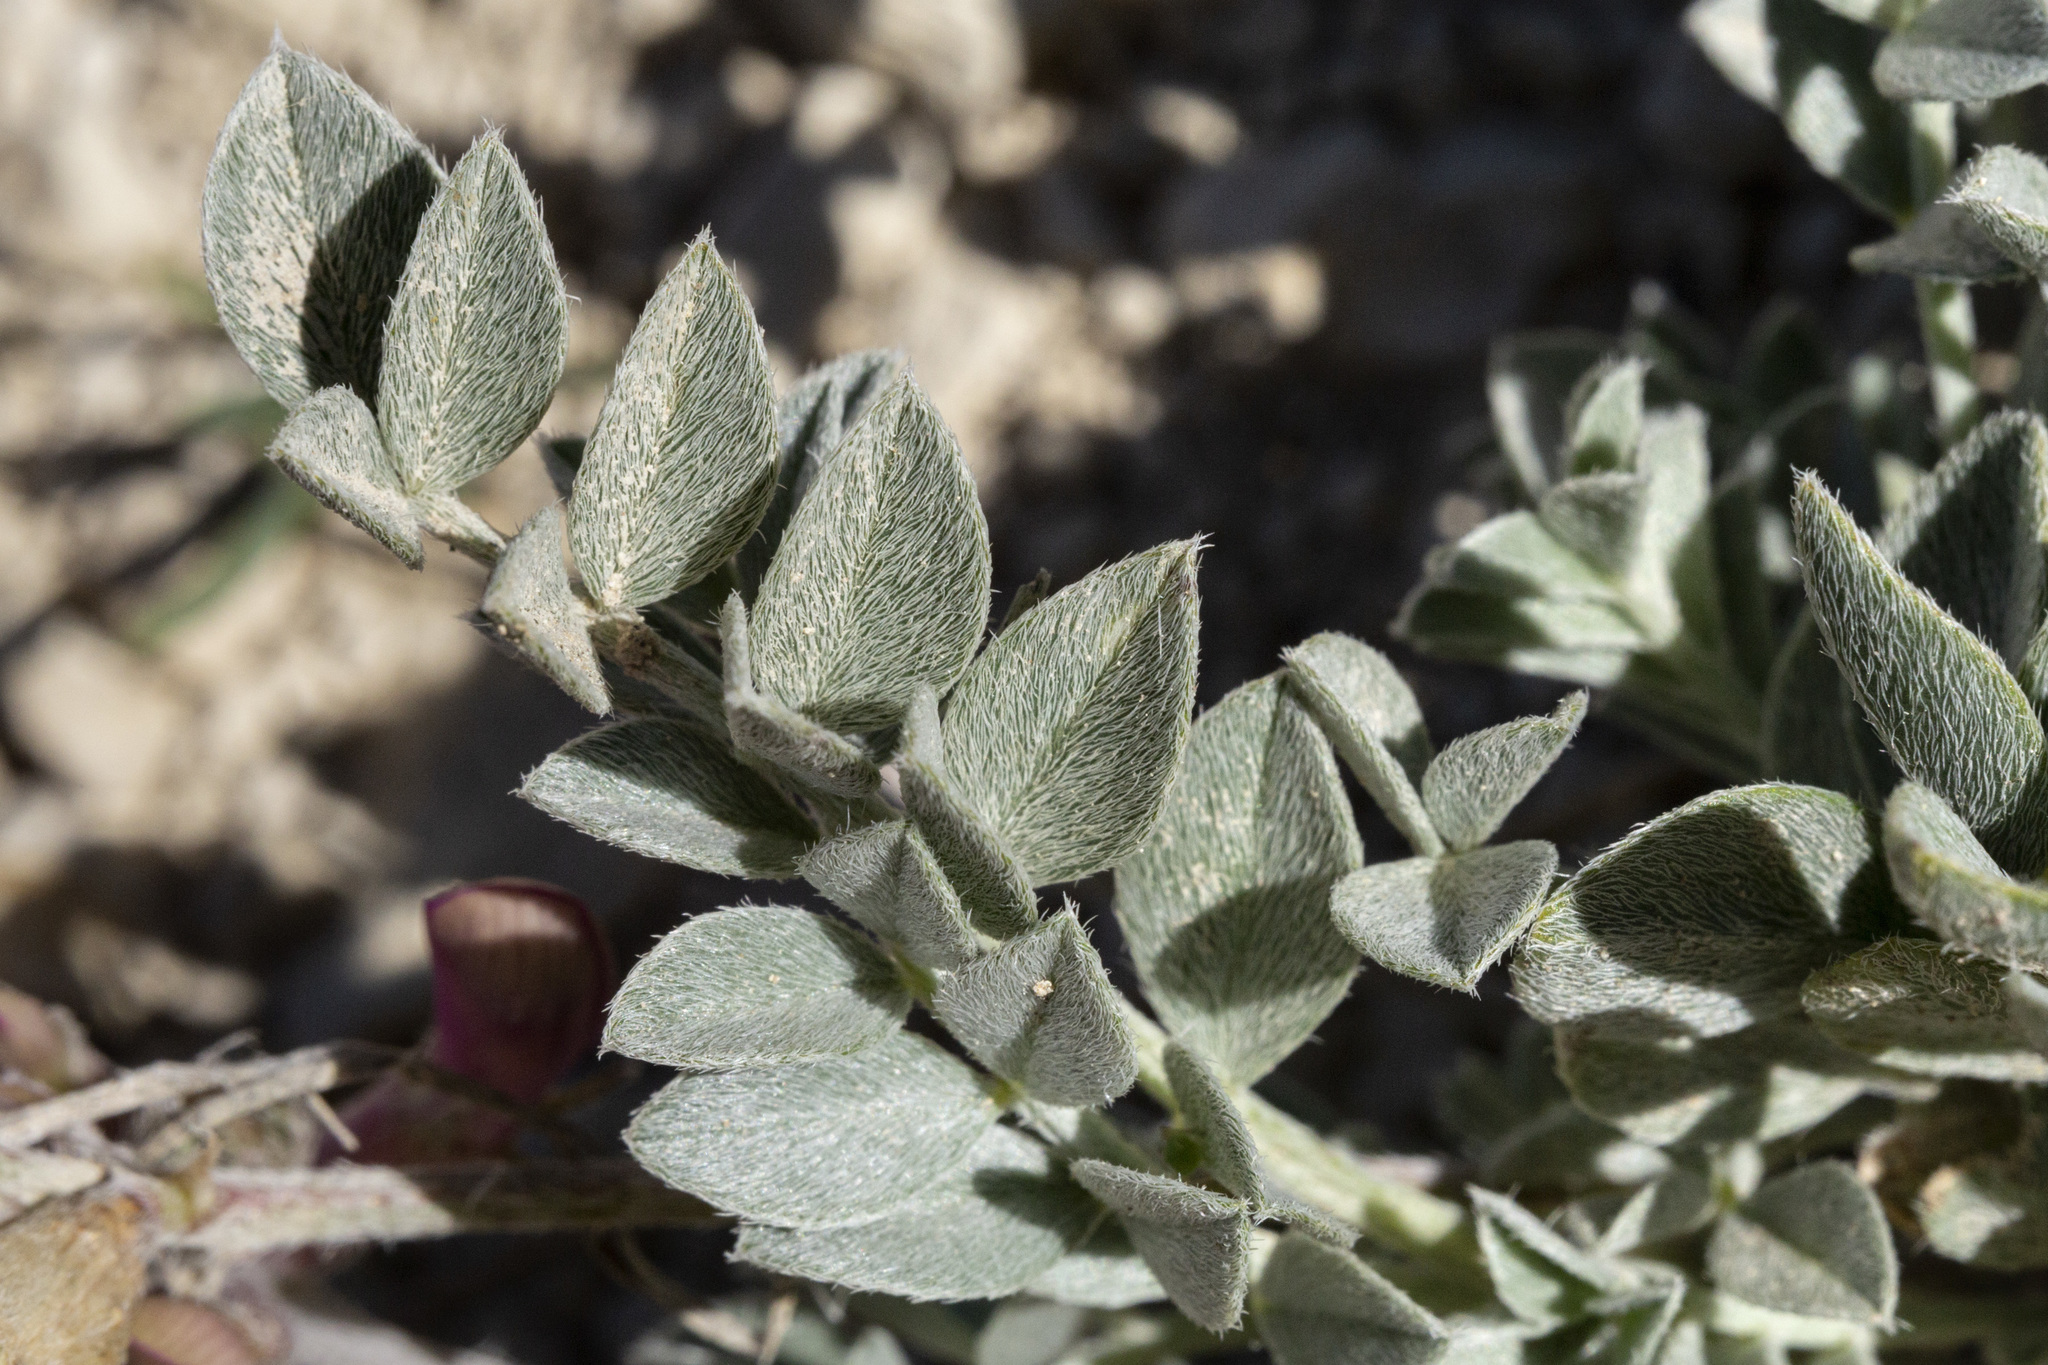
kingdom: Plantae
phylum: Tracheophyta
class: Magnoliopsida
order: Fabales
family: Fabaceae
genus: Astragalus
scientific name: Astragalus missouriensis
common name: Missouri milk-vetch
